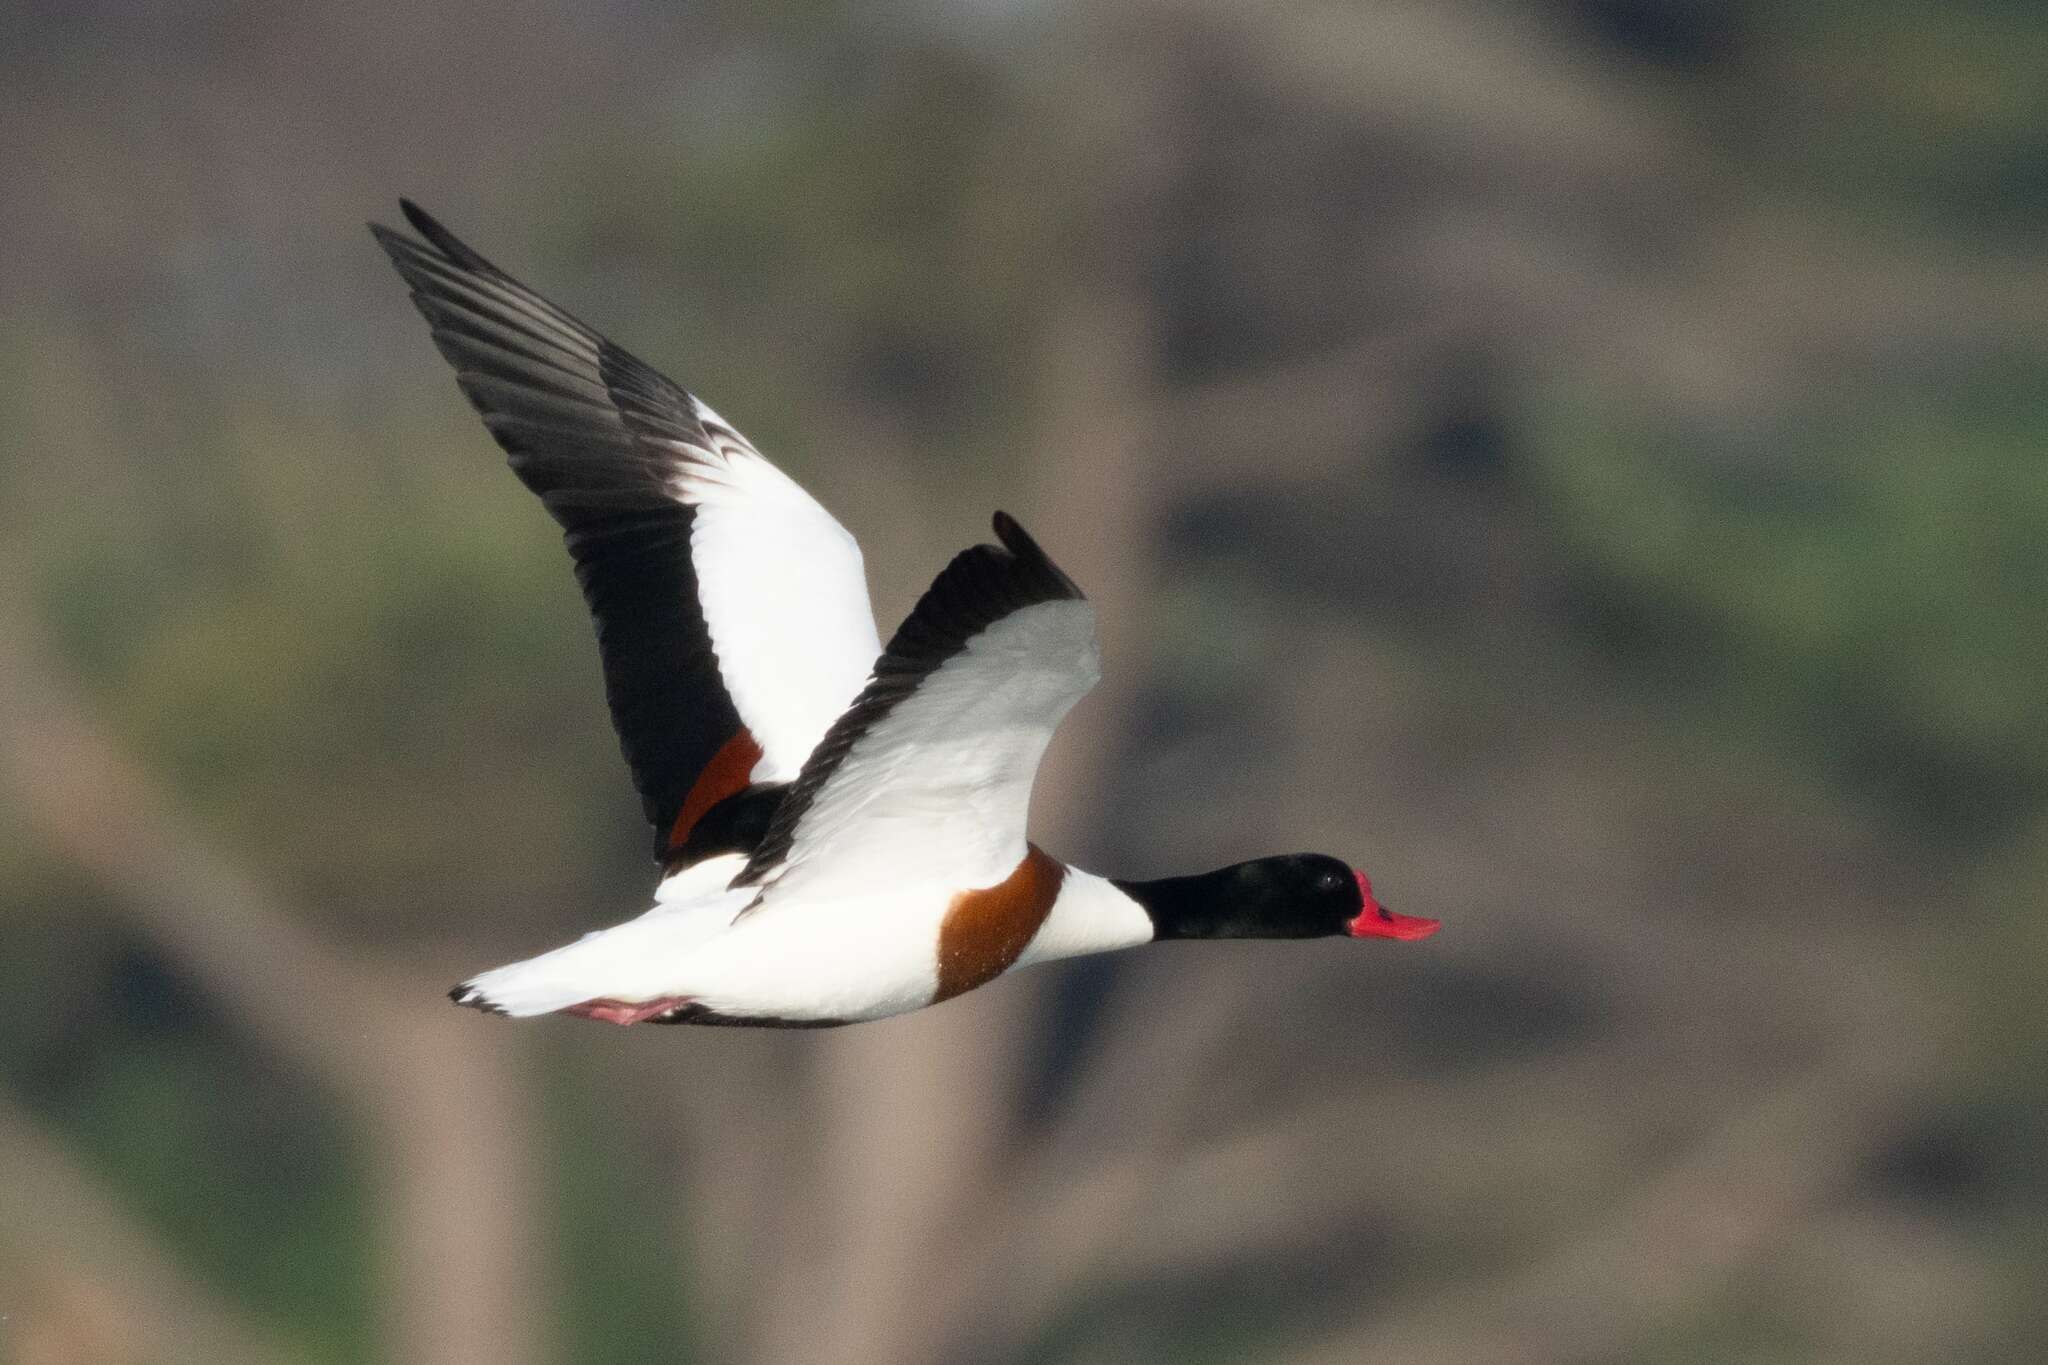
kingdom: Animalia
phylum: Chordata
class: Aves
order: Anseriformes
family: Anatidae
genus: Tadorna
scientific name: Tadorna tadorna
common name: Common shelduck
